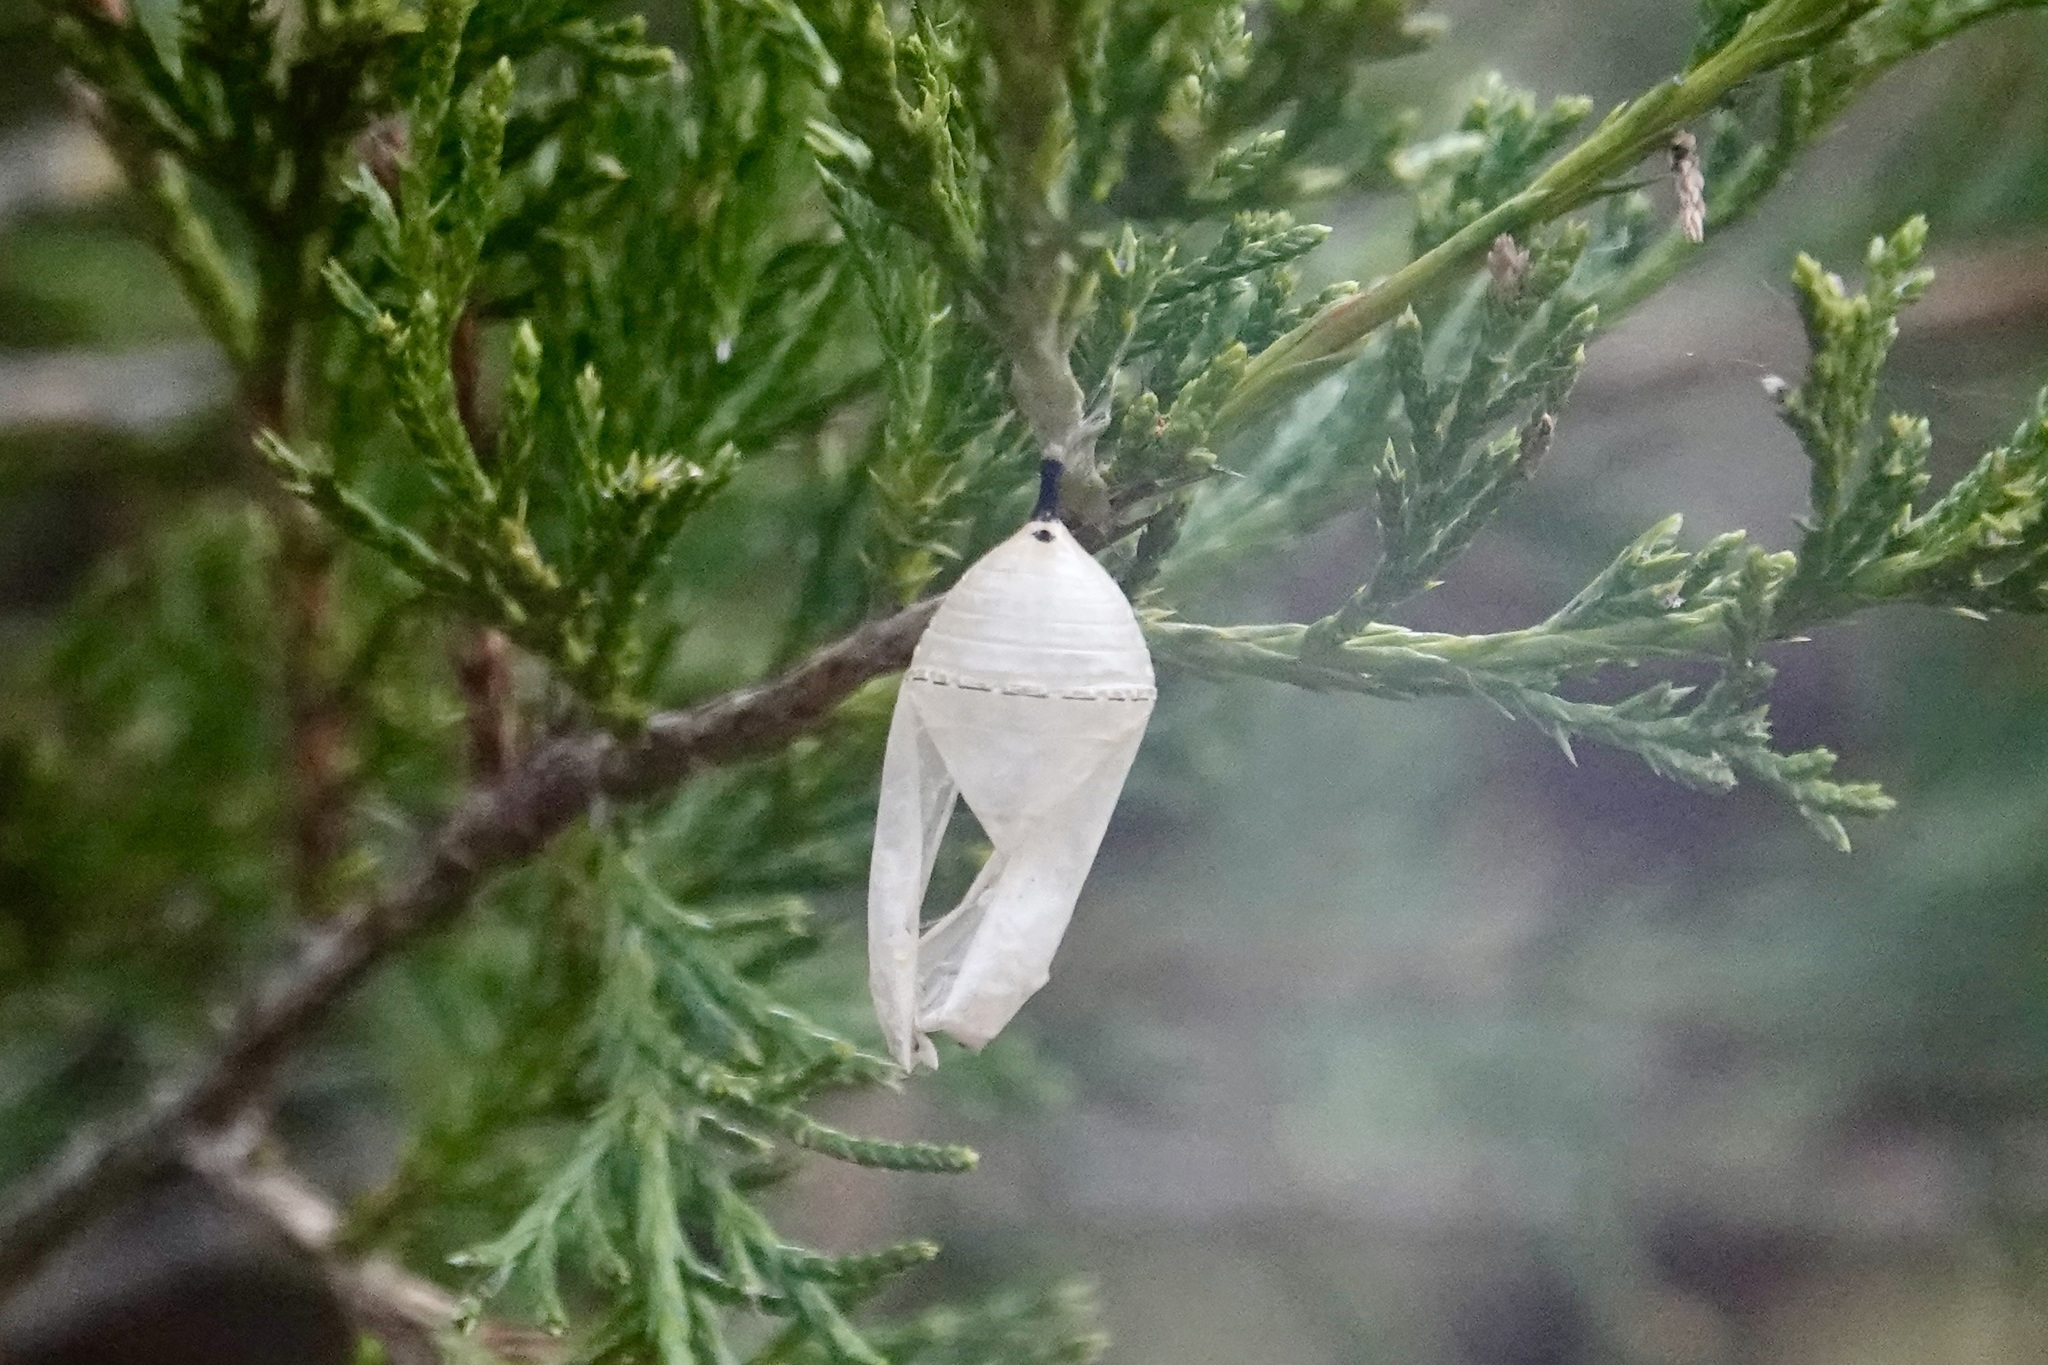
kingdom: Animalia
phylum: Arthropoda
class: Insecta
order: Lepidoptera
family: Nymphalidae
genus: Danaus
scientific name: Danaus plexippus
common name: Monarch
